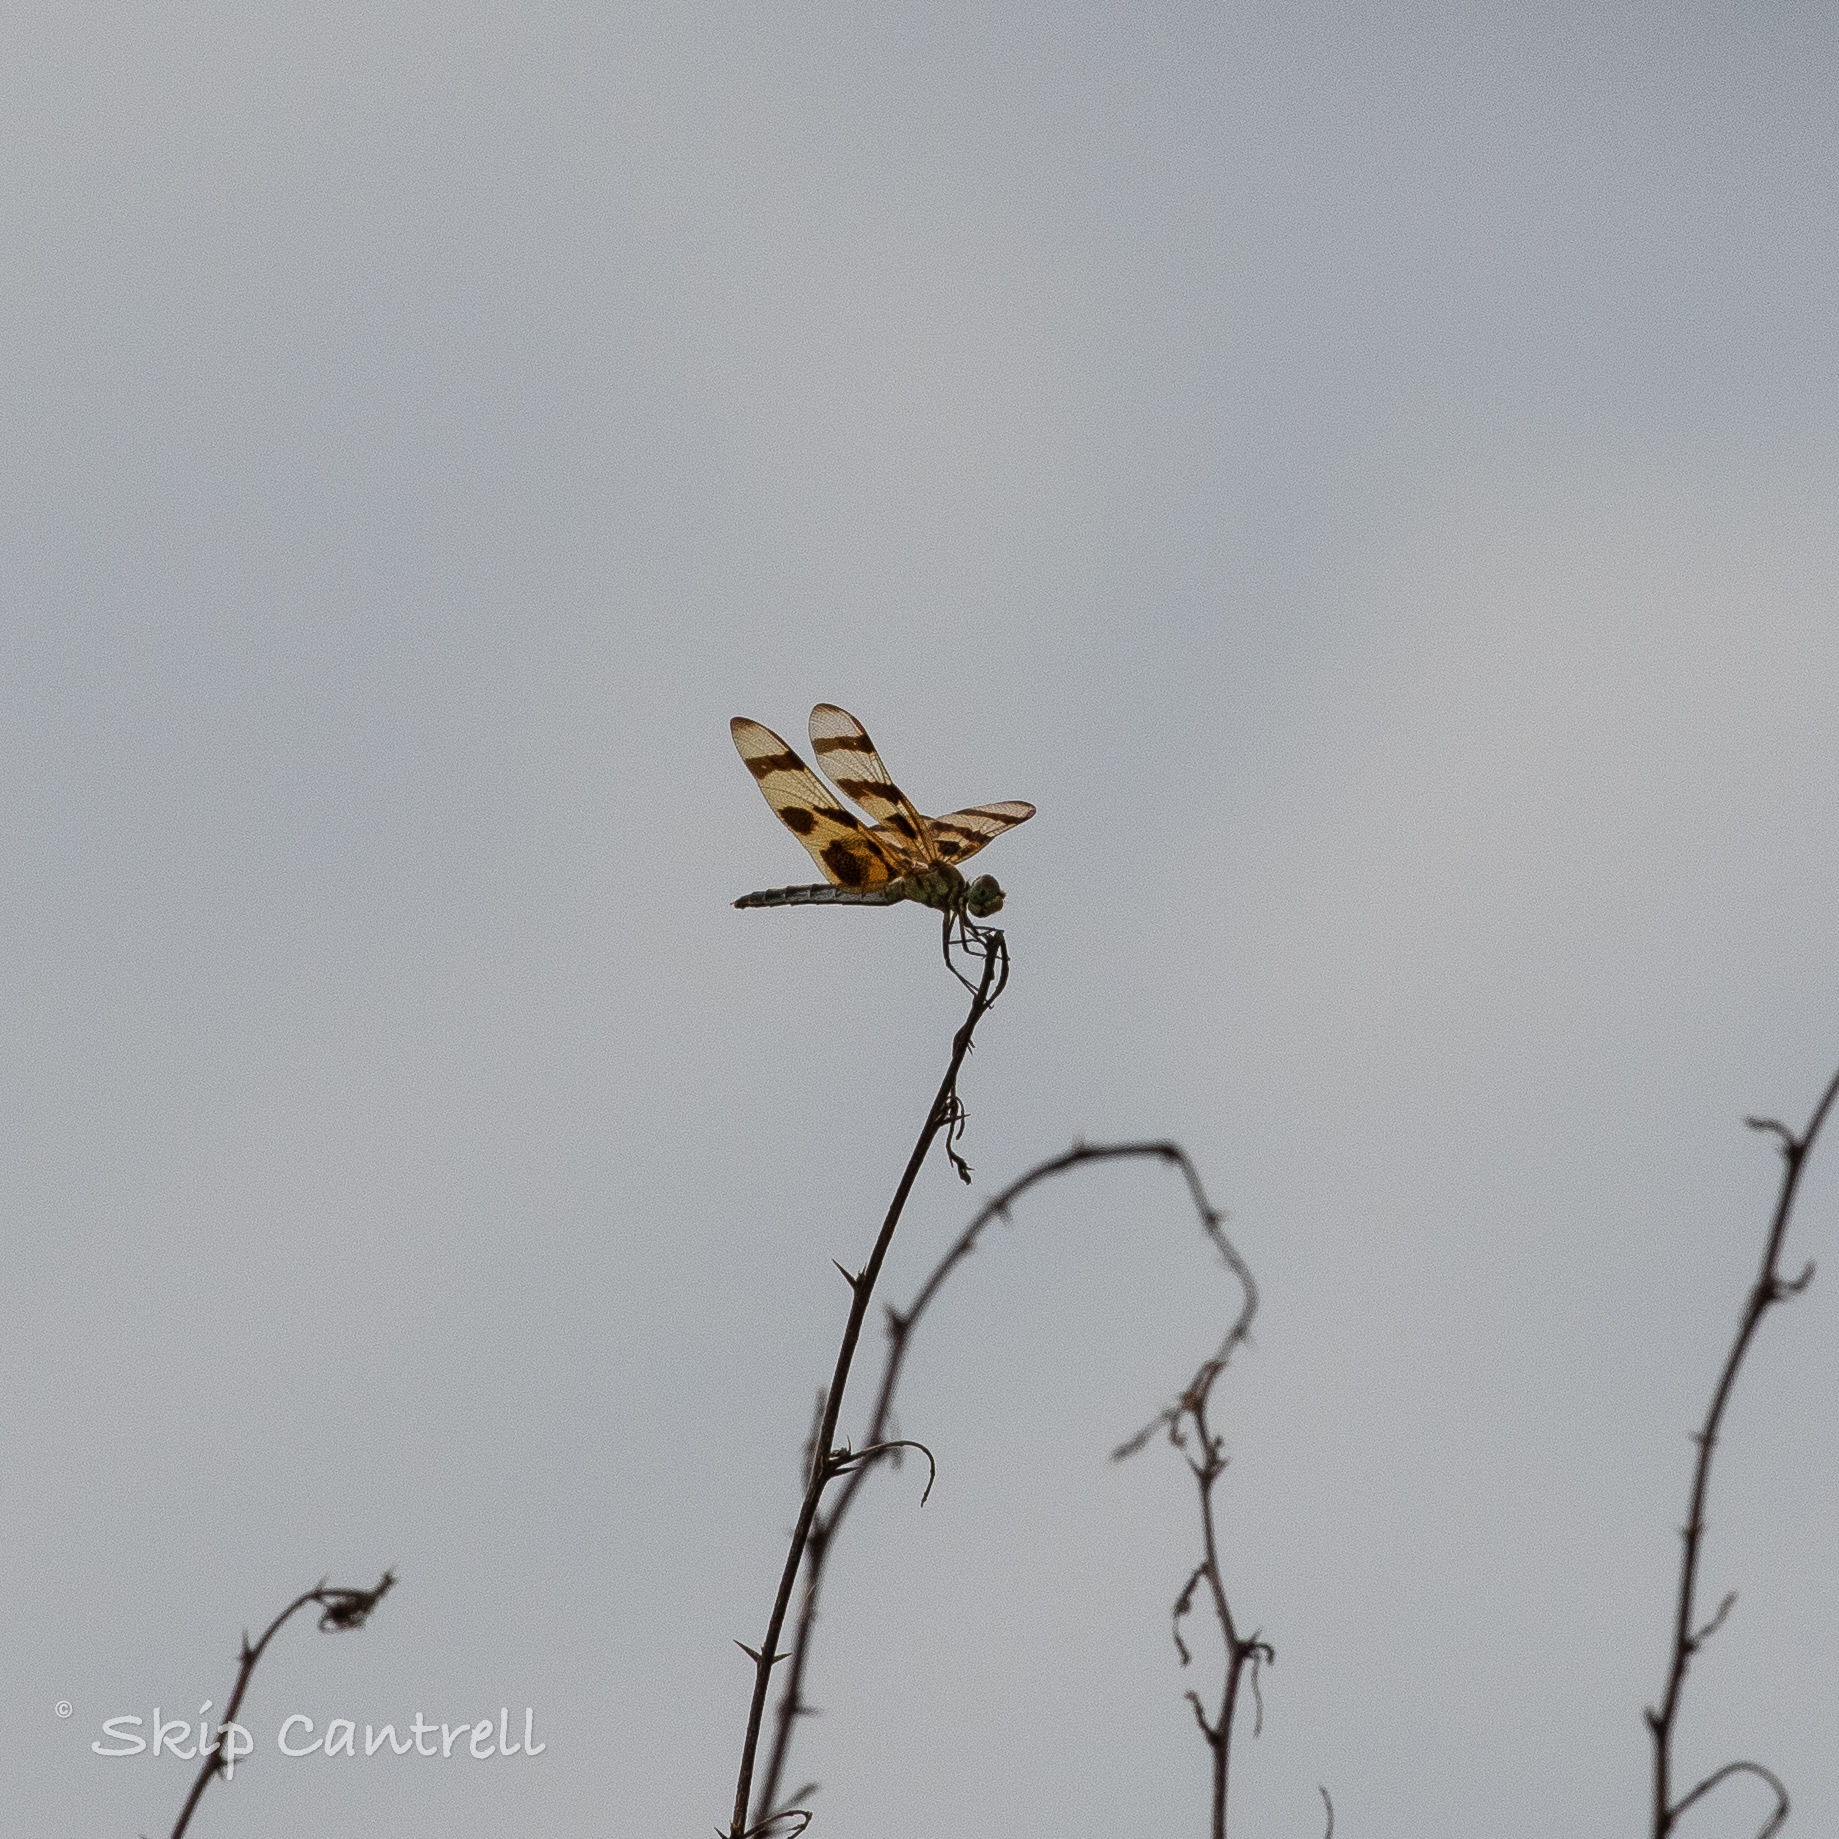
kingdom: Animalia
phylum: Arthropoda
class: Insecta
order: Odonata
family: Libellulidae
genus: Celithemis
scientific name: Celithemis eponina
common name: Halloween pennant
